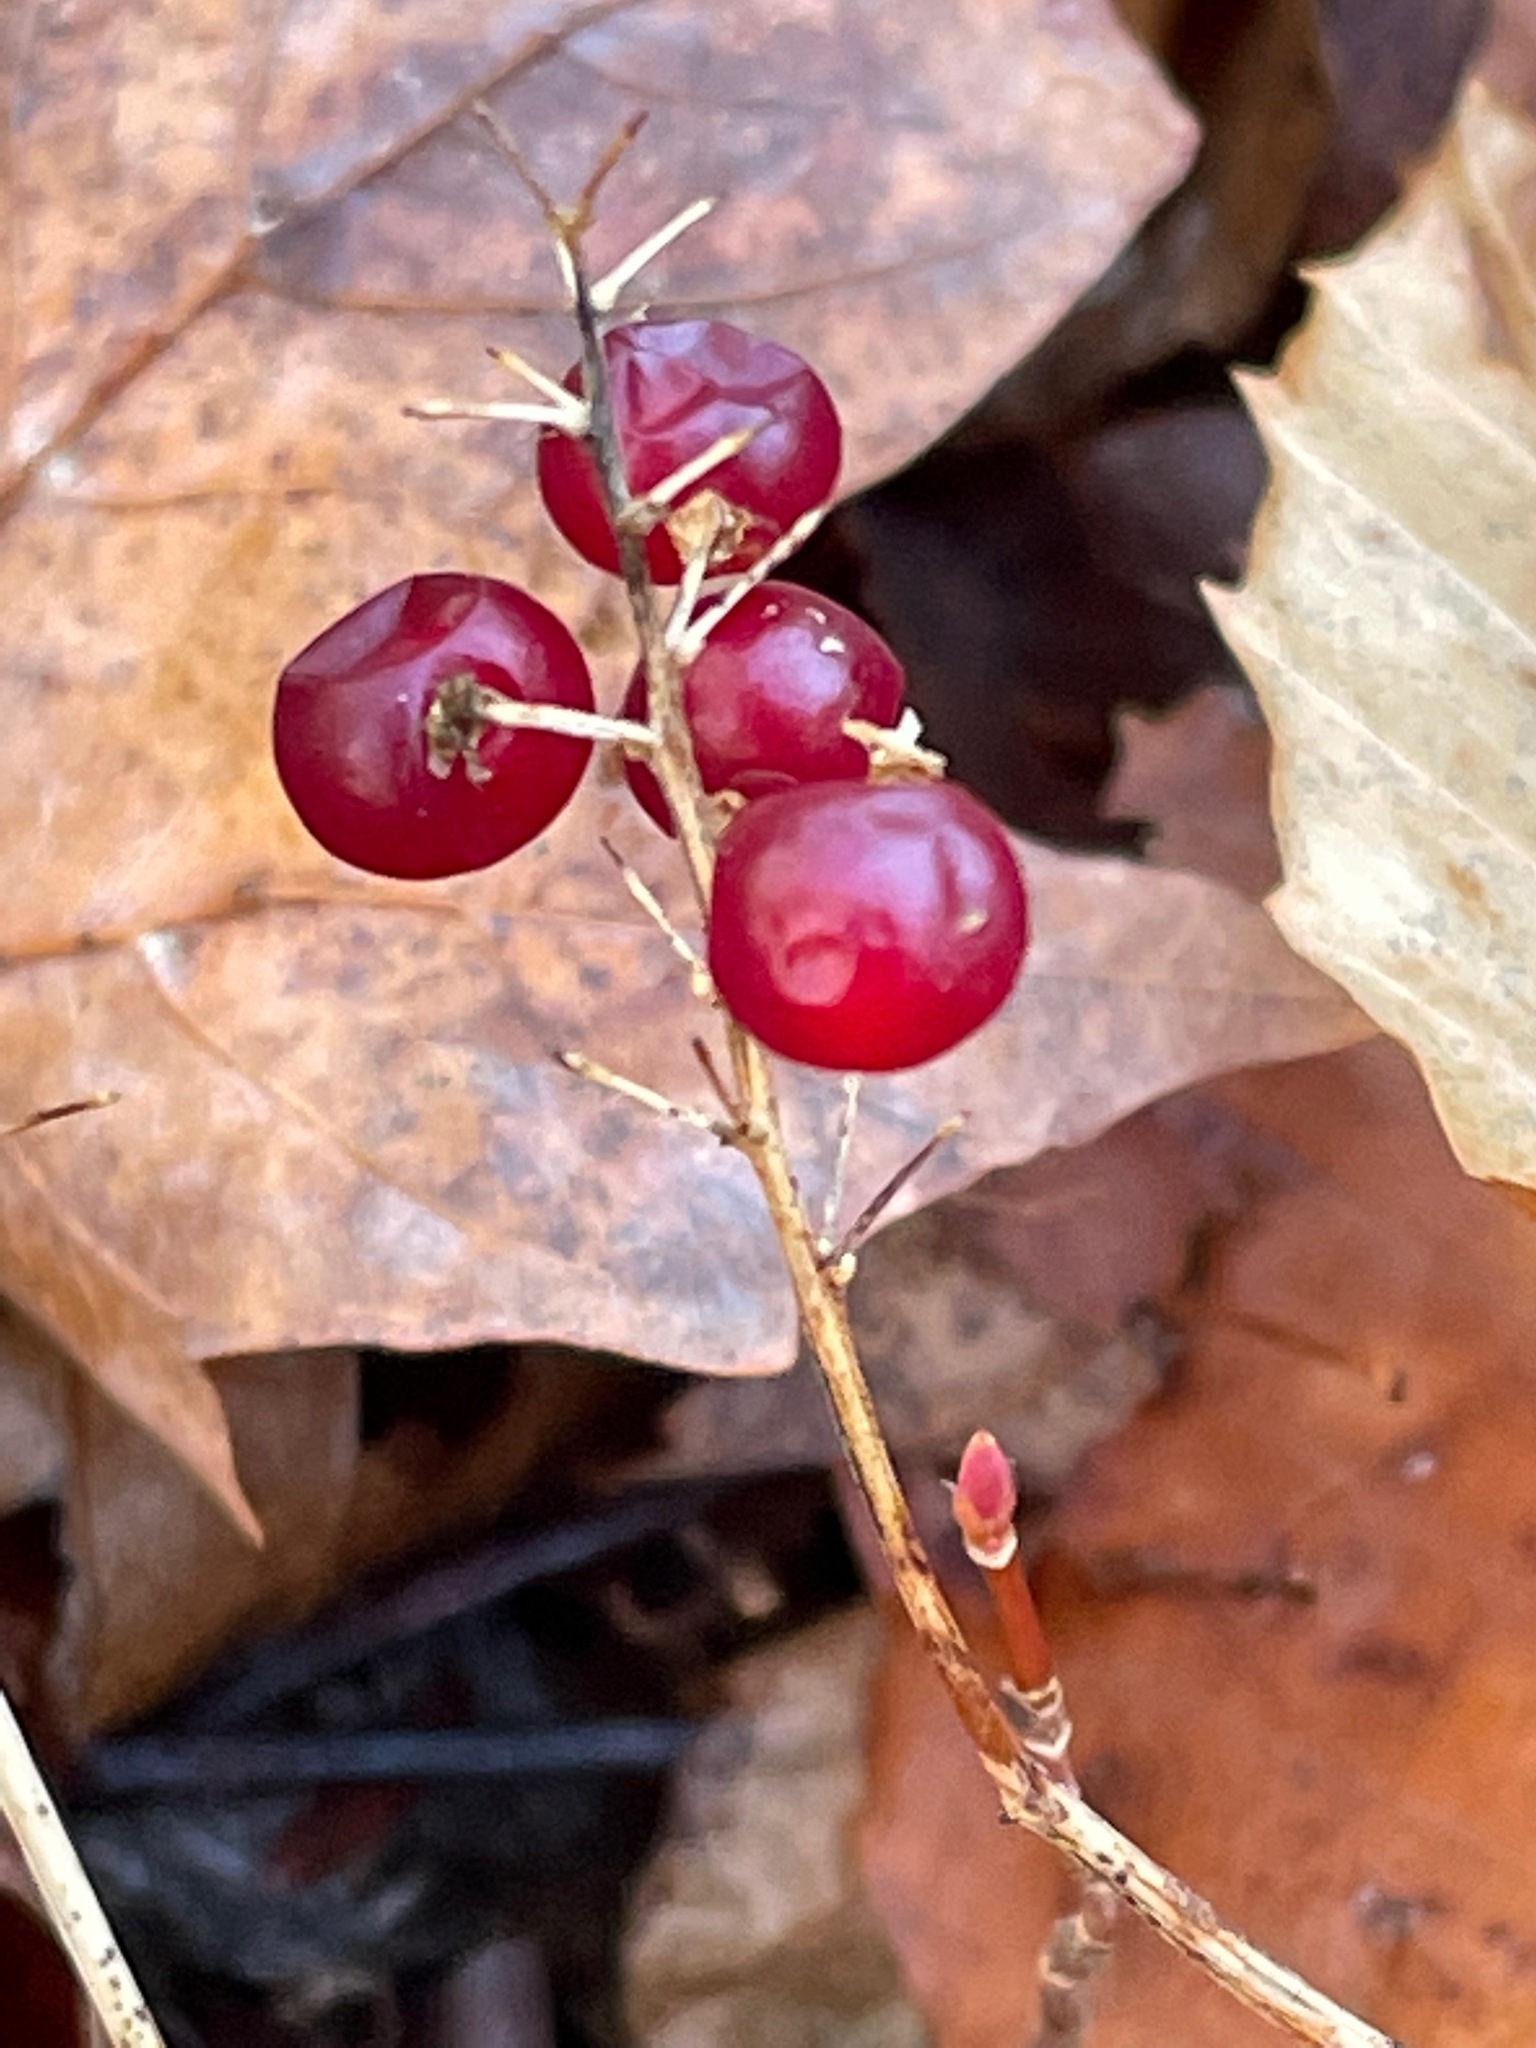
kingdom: Plantae
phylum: Tracheophyta
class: Liliopsida
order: Asparagales
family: Asparagaceae
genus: Maianthemum
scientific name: Maianthemum canadense
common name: False lily-of-the-valley
